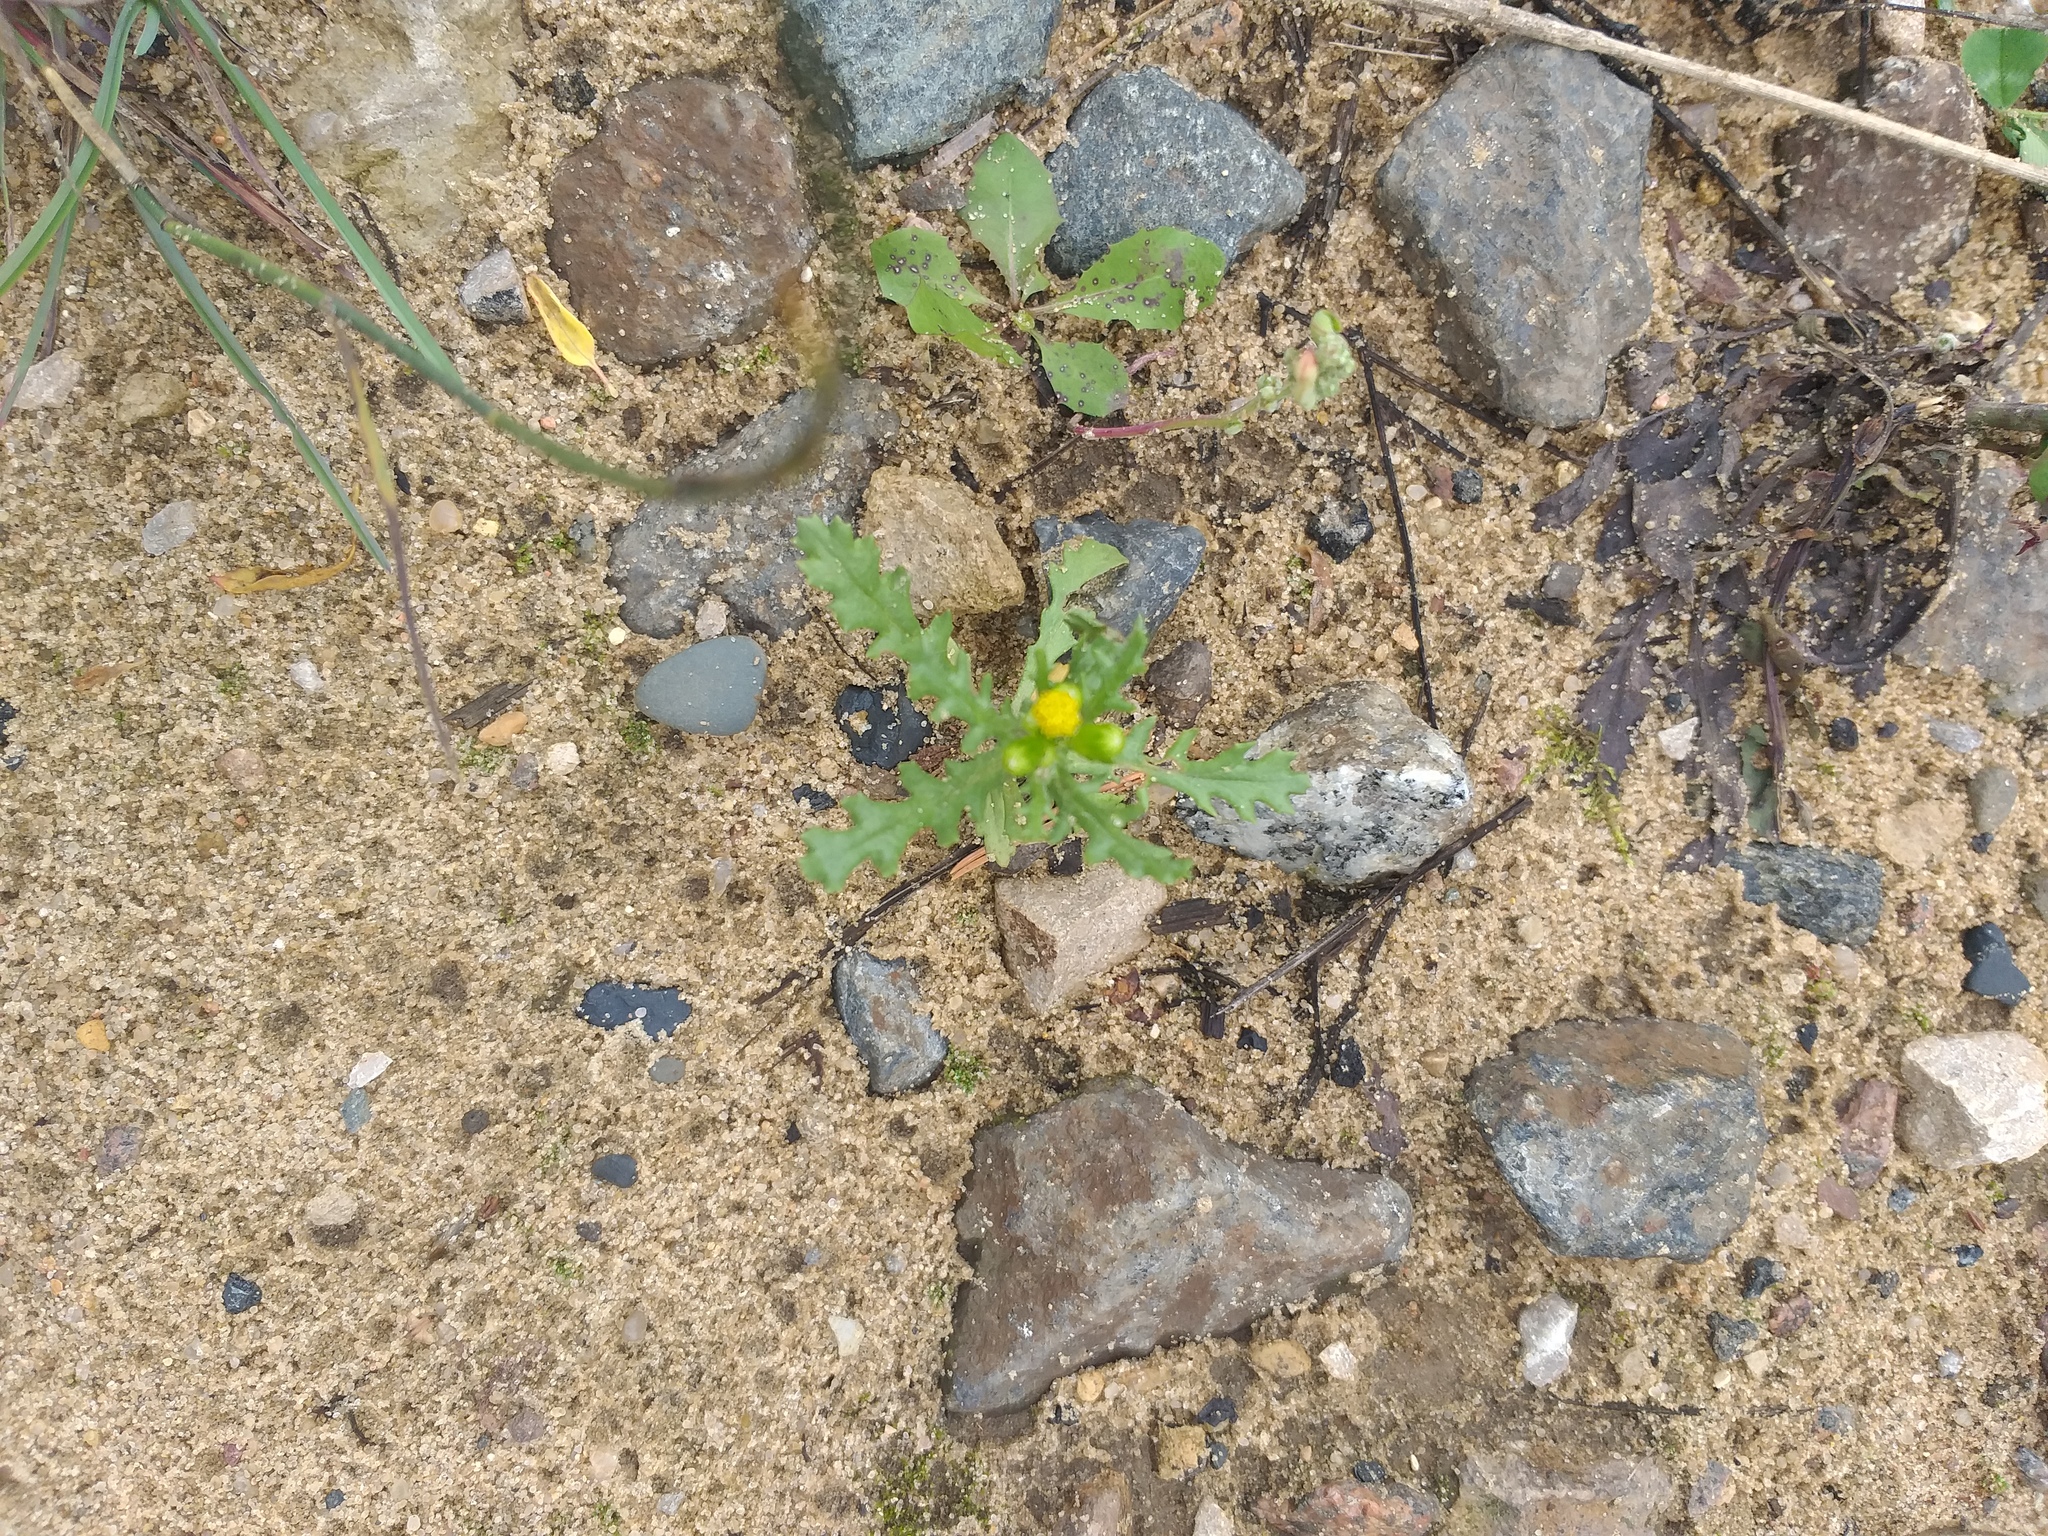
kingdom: Plantae
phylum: Tracheophyta
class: Magnoliopsida
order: Asterales
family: Asteraceae
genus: Senecio
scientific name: Senecio vulgaris
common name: Old-man-in-the-spring
